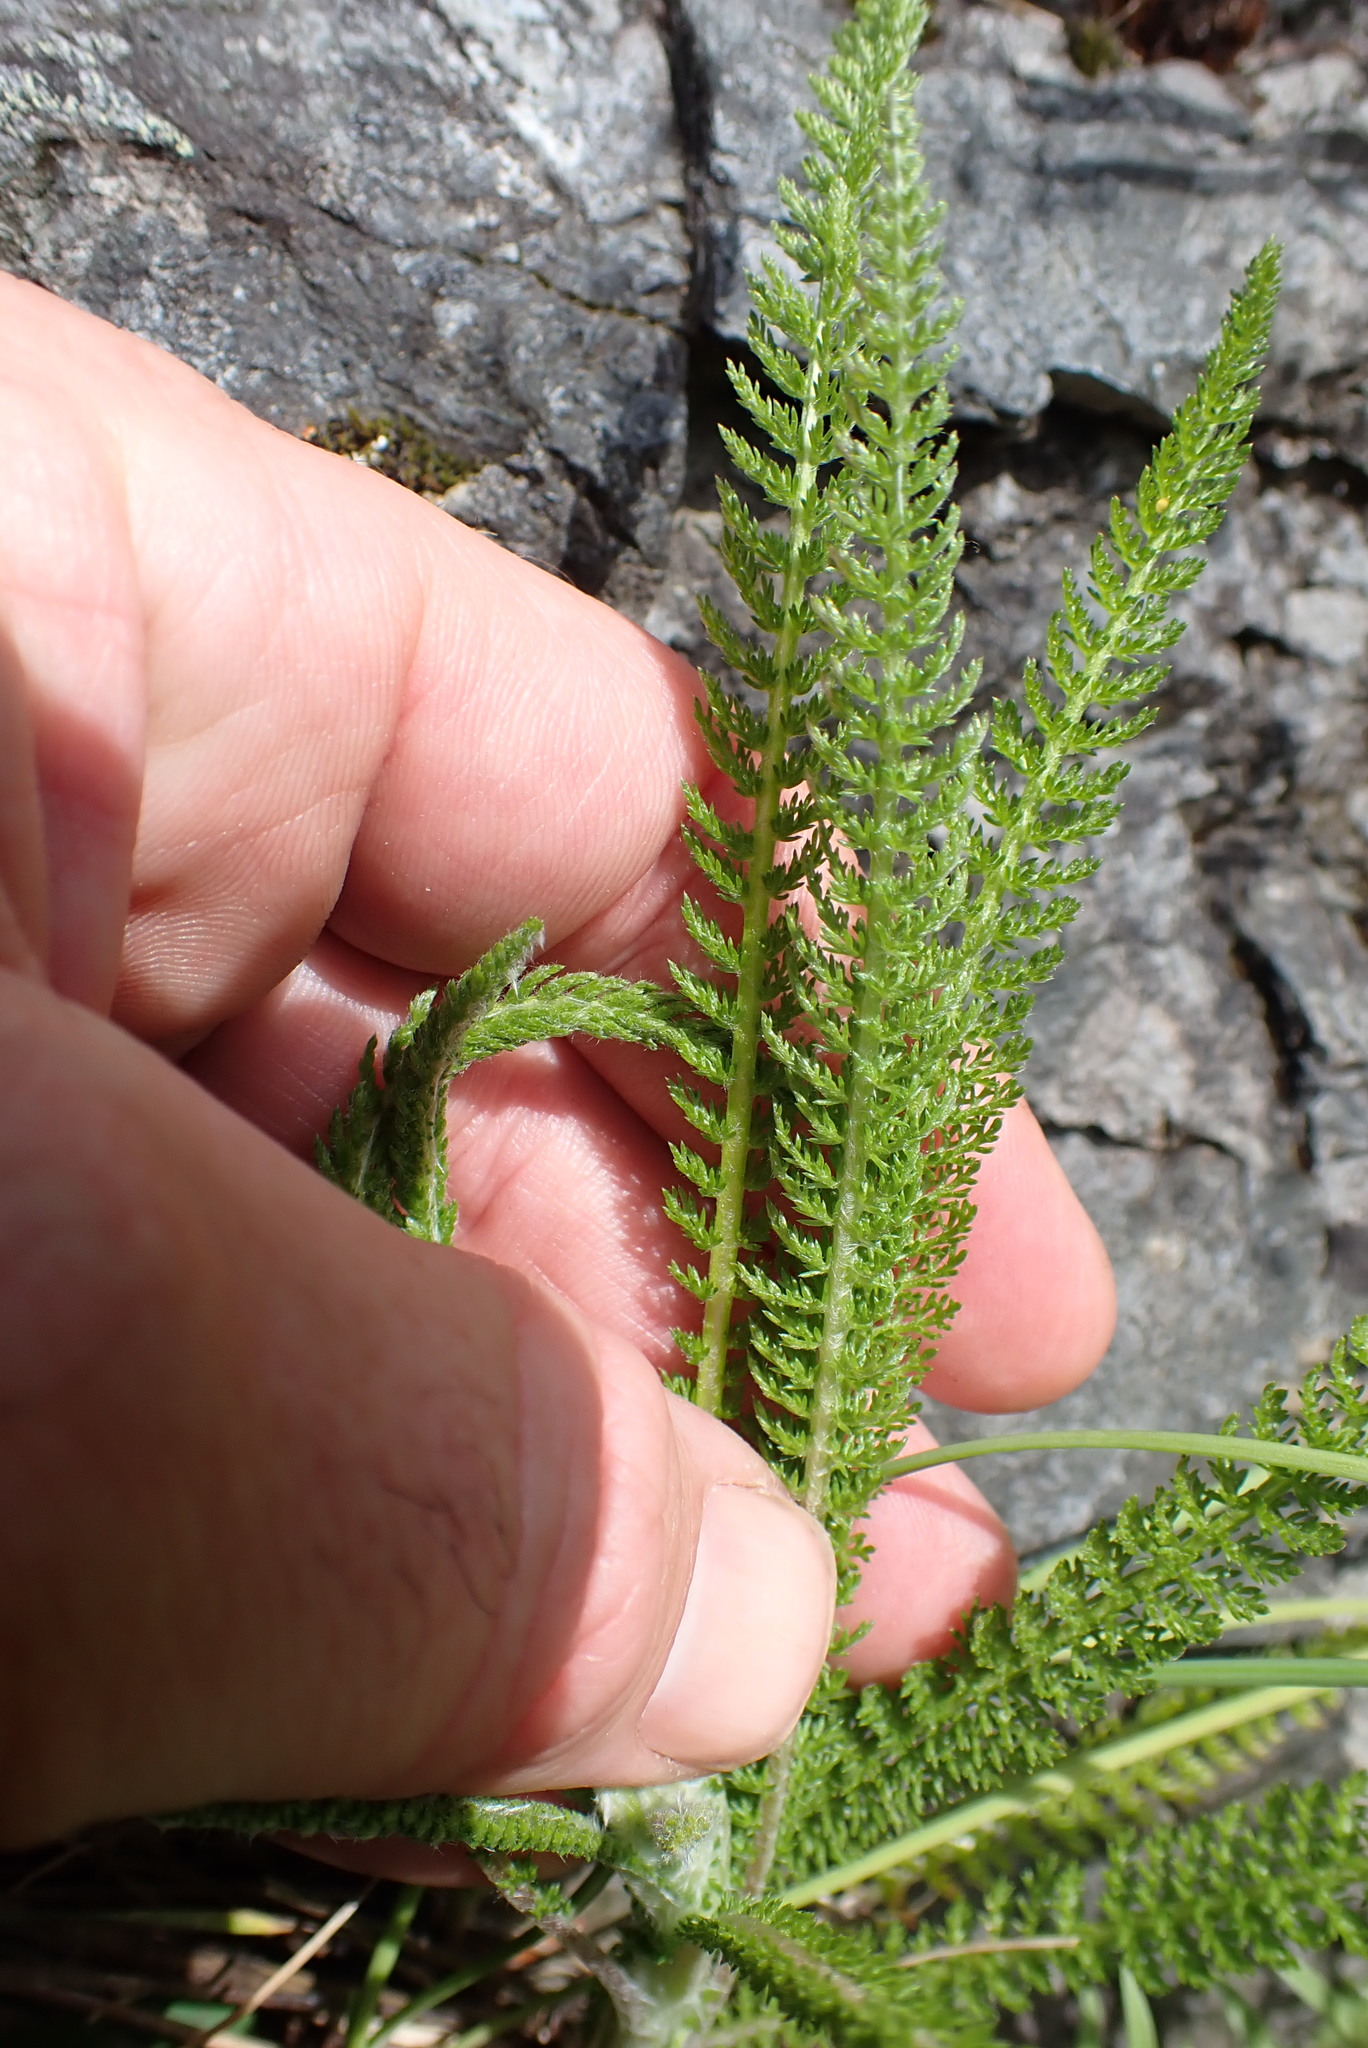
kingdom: Plantae
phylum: Tracheophyta
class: Magnoliopsida
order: Asterales
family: Asteraceae
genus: Achillea
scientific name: Achillea millefolium
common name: Yarrow
